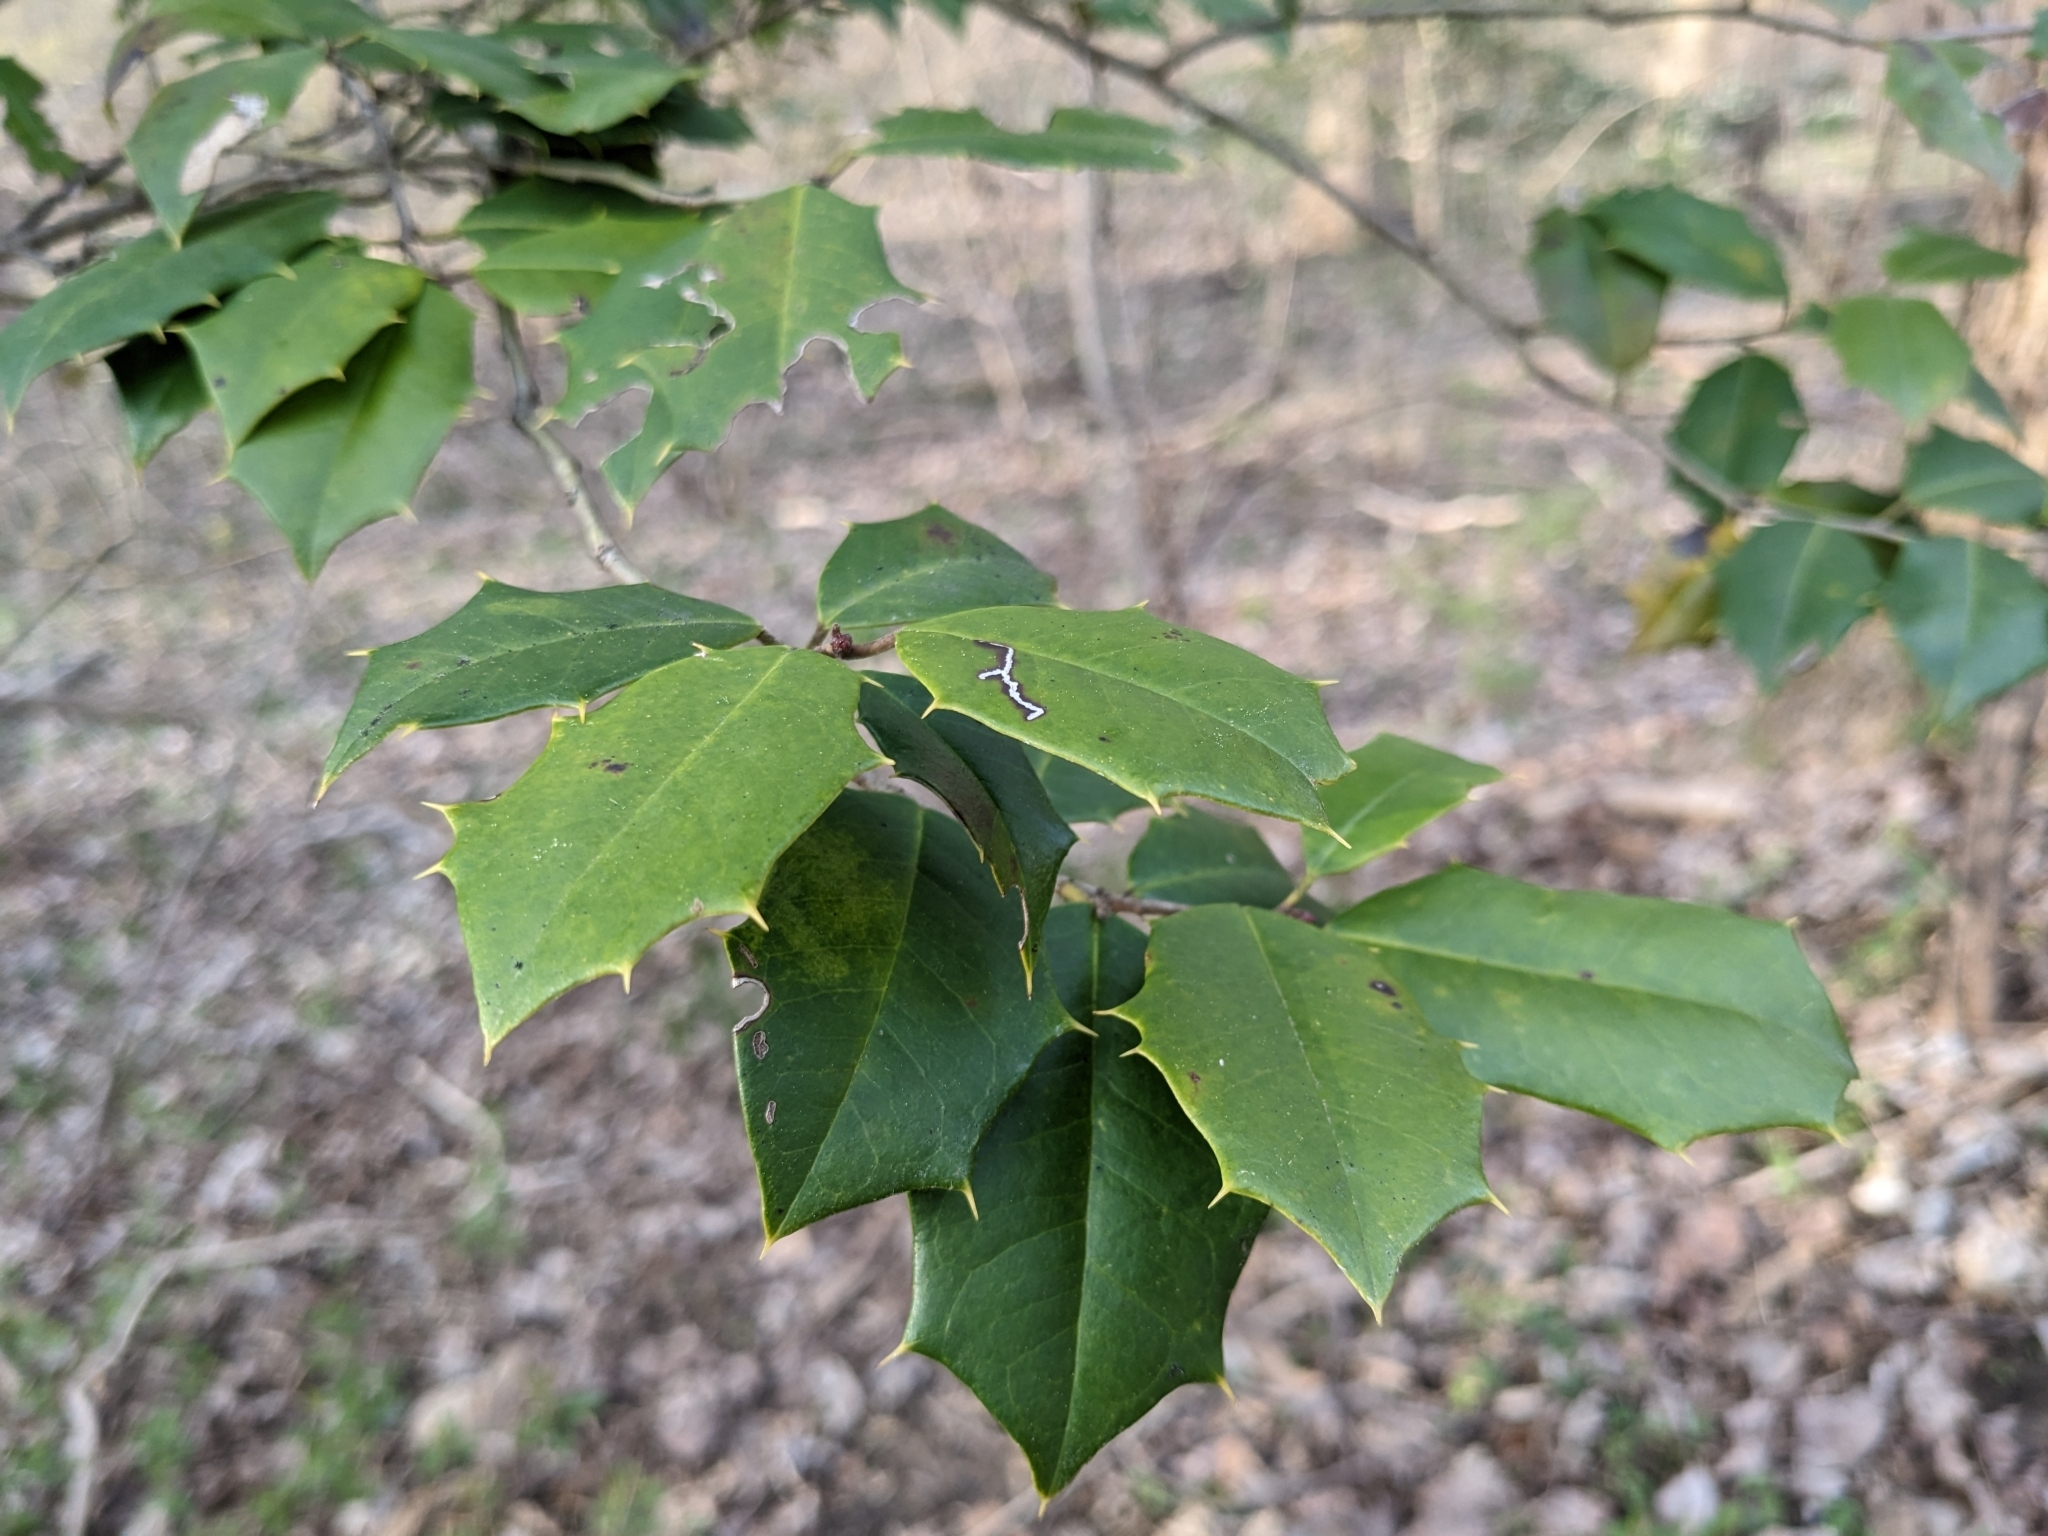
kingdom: Plantae
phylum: Tracheophyta
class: Magnoliopsida
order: Aquifoliales
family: Aquifoliaceae
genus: Ilex
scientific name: Ilex opaca
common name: American holly
